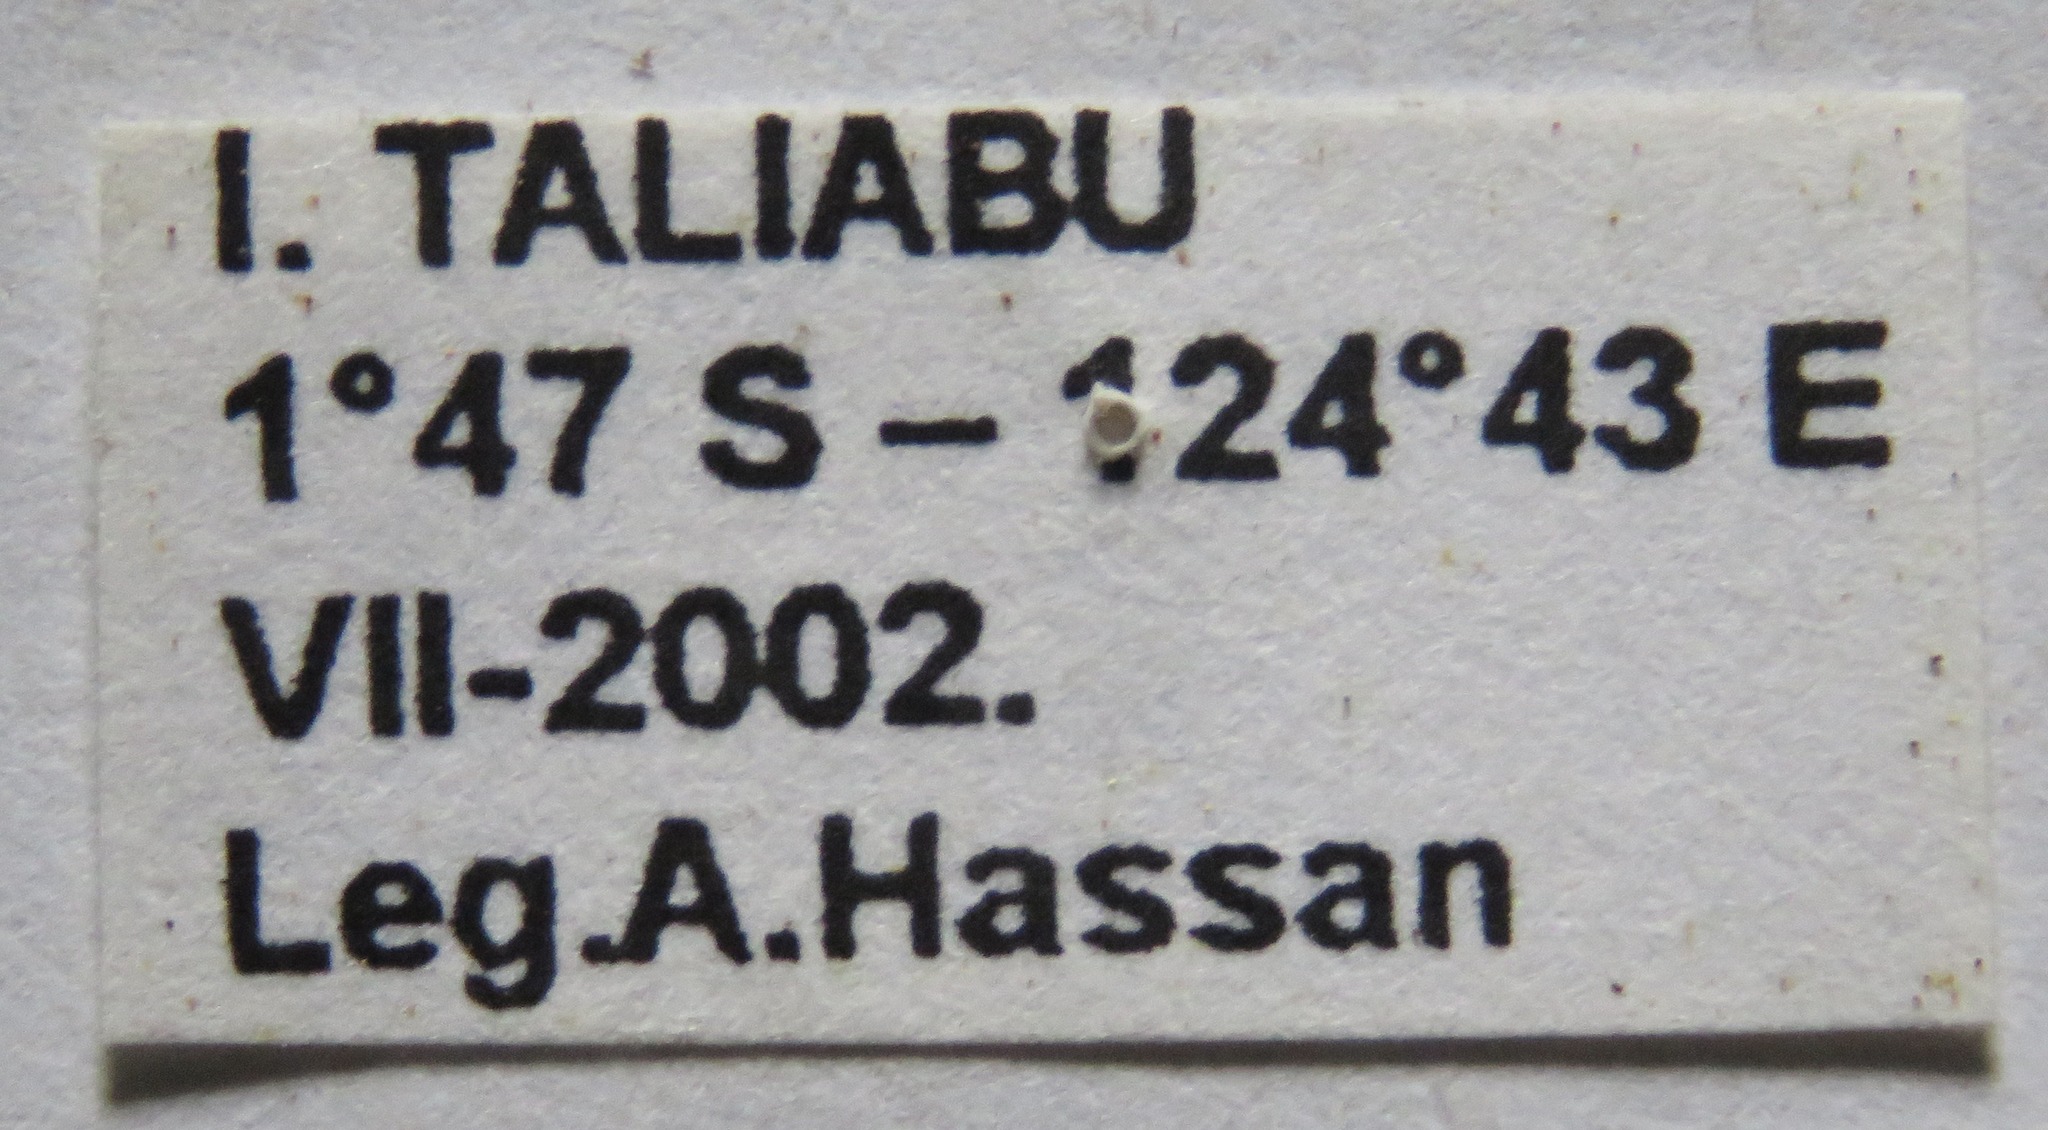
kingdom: Animalia
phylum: Arthropoda
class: Insecta
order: Coleoptera
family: Lucanidae
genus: Prosopocoilus
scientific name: Prosopocoilus bruijni
